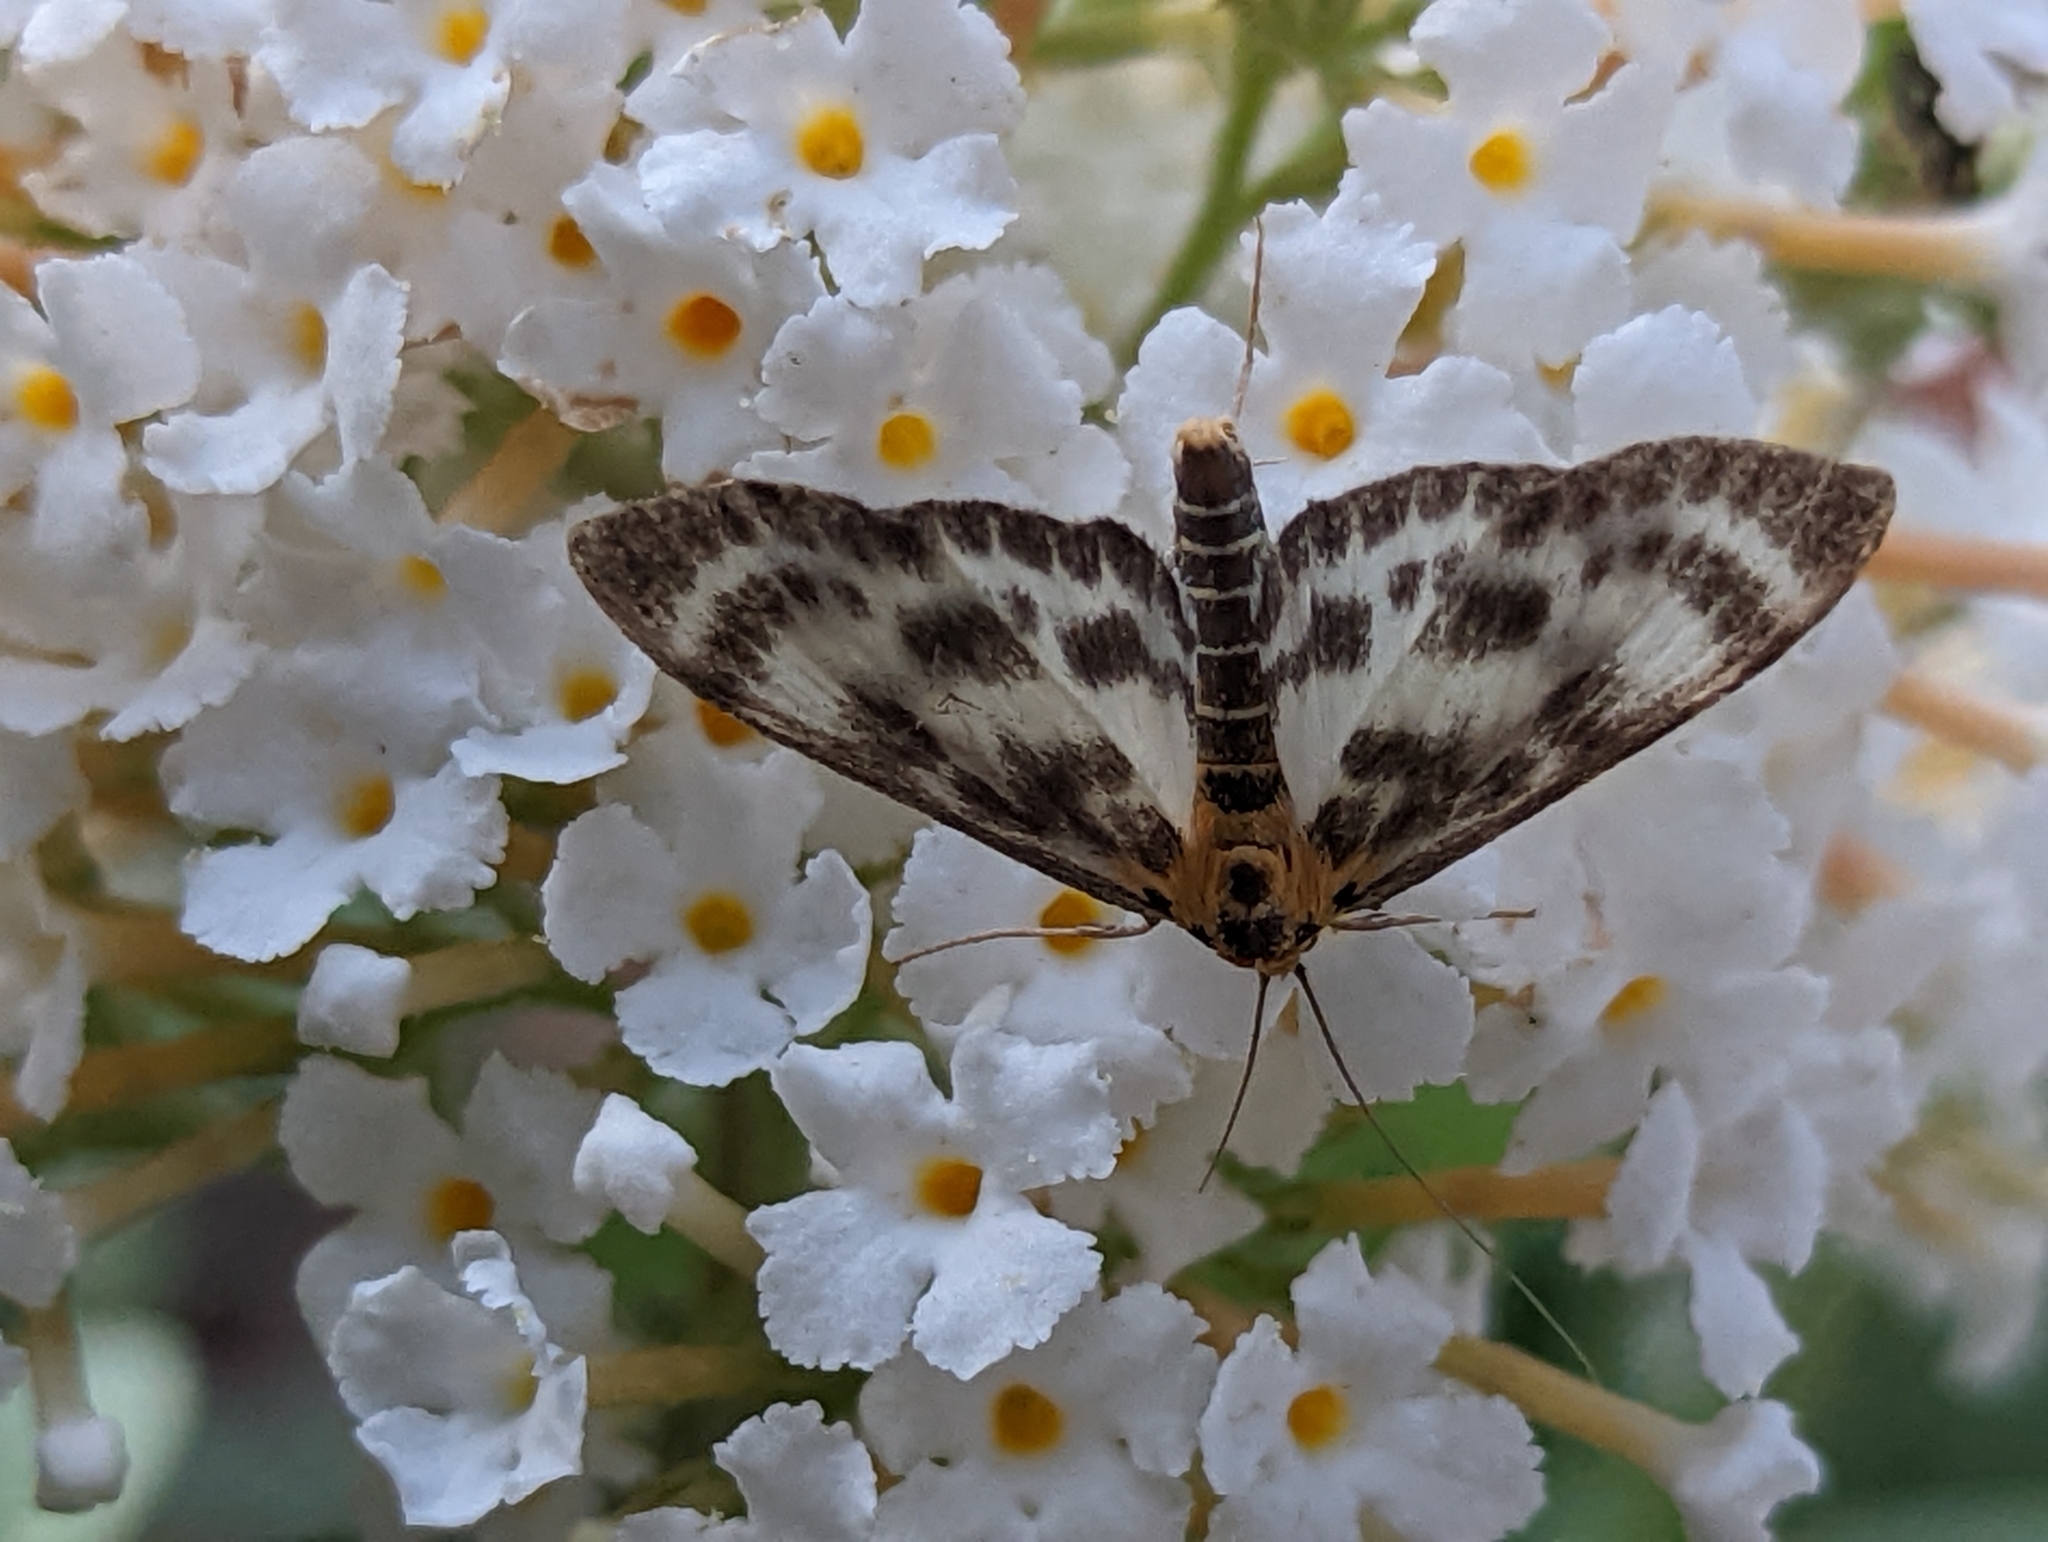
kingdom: Animalia
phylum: Arthropoda
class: Insecta
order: Lepidoptera
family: Crambidae
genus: Anania
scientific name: Anania hortulata
